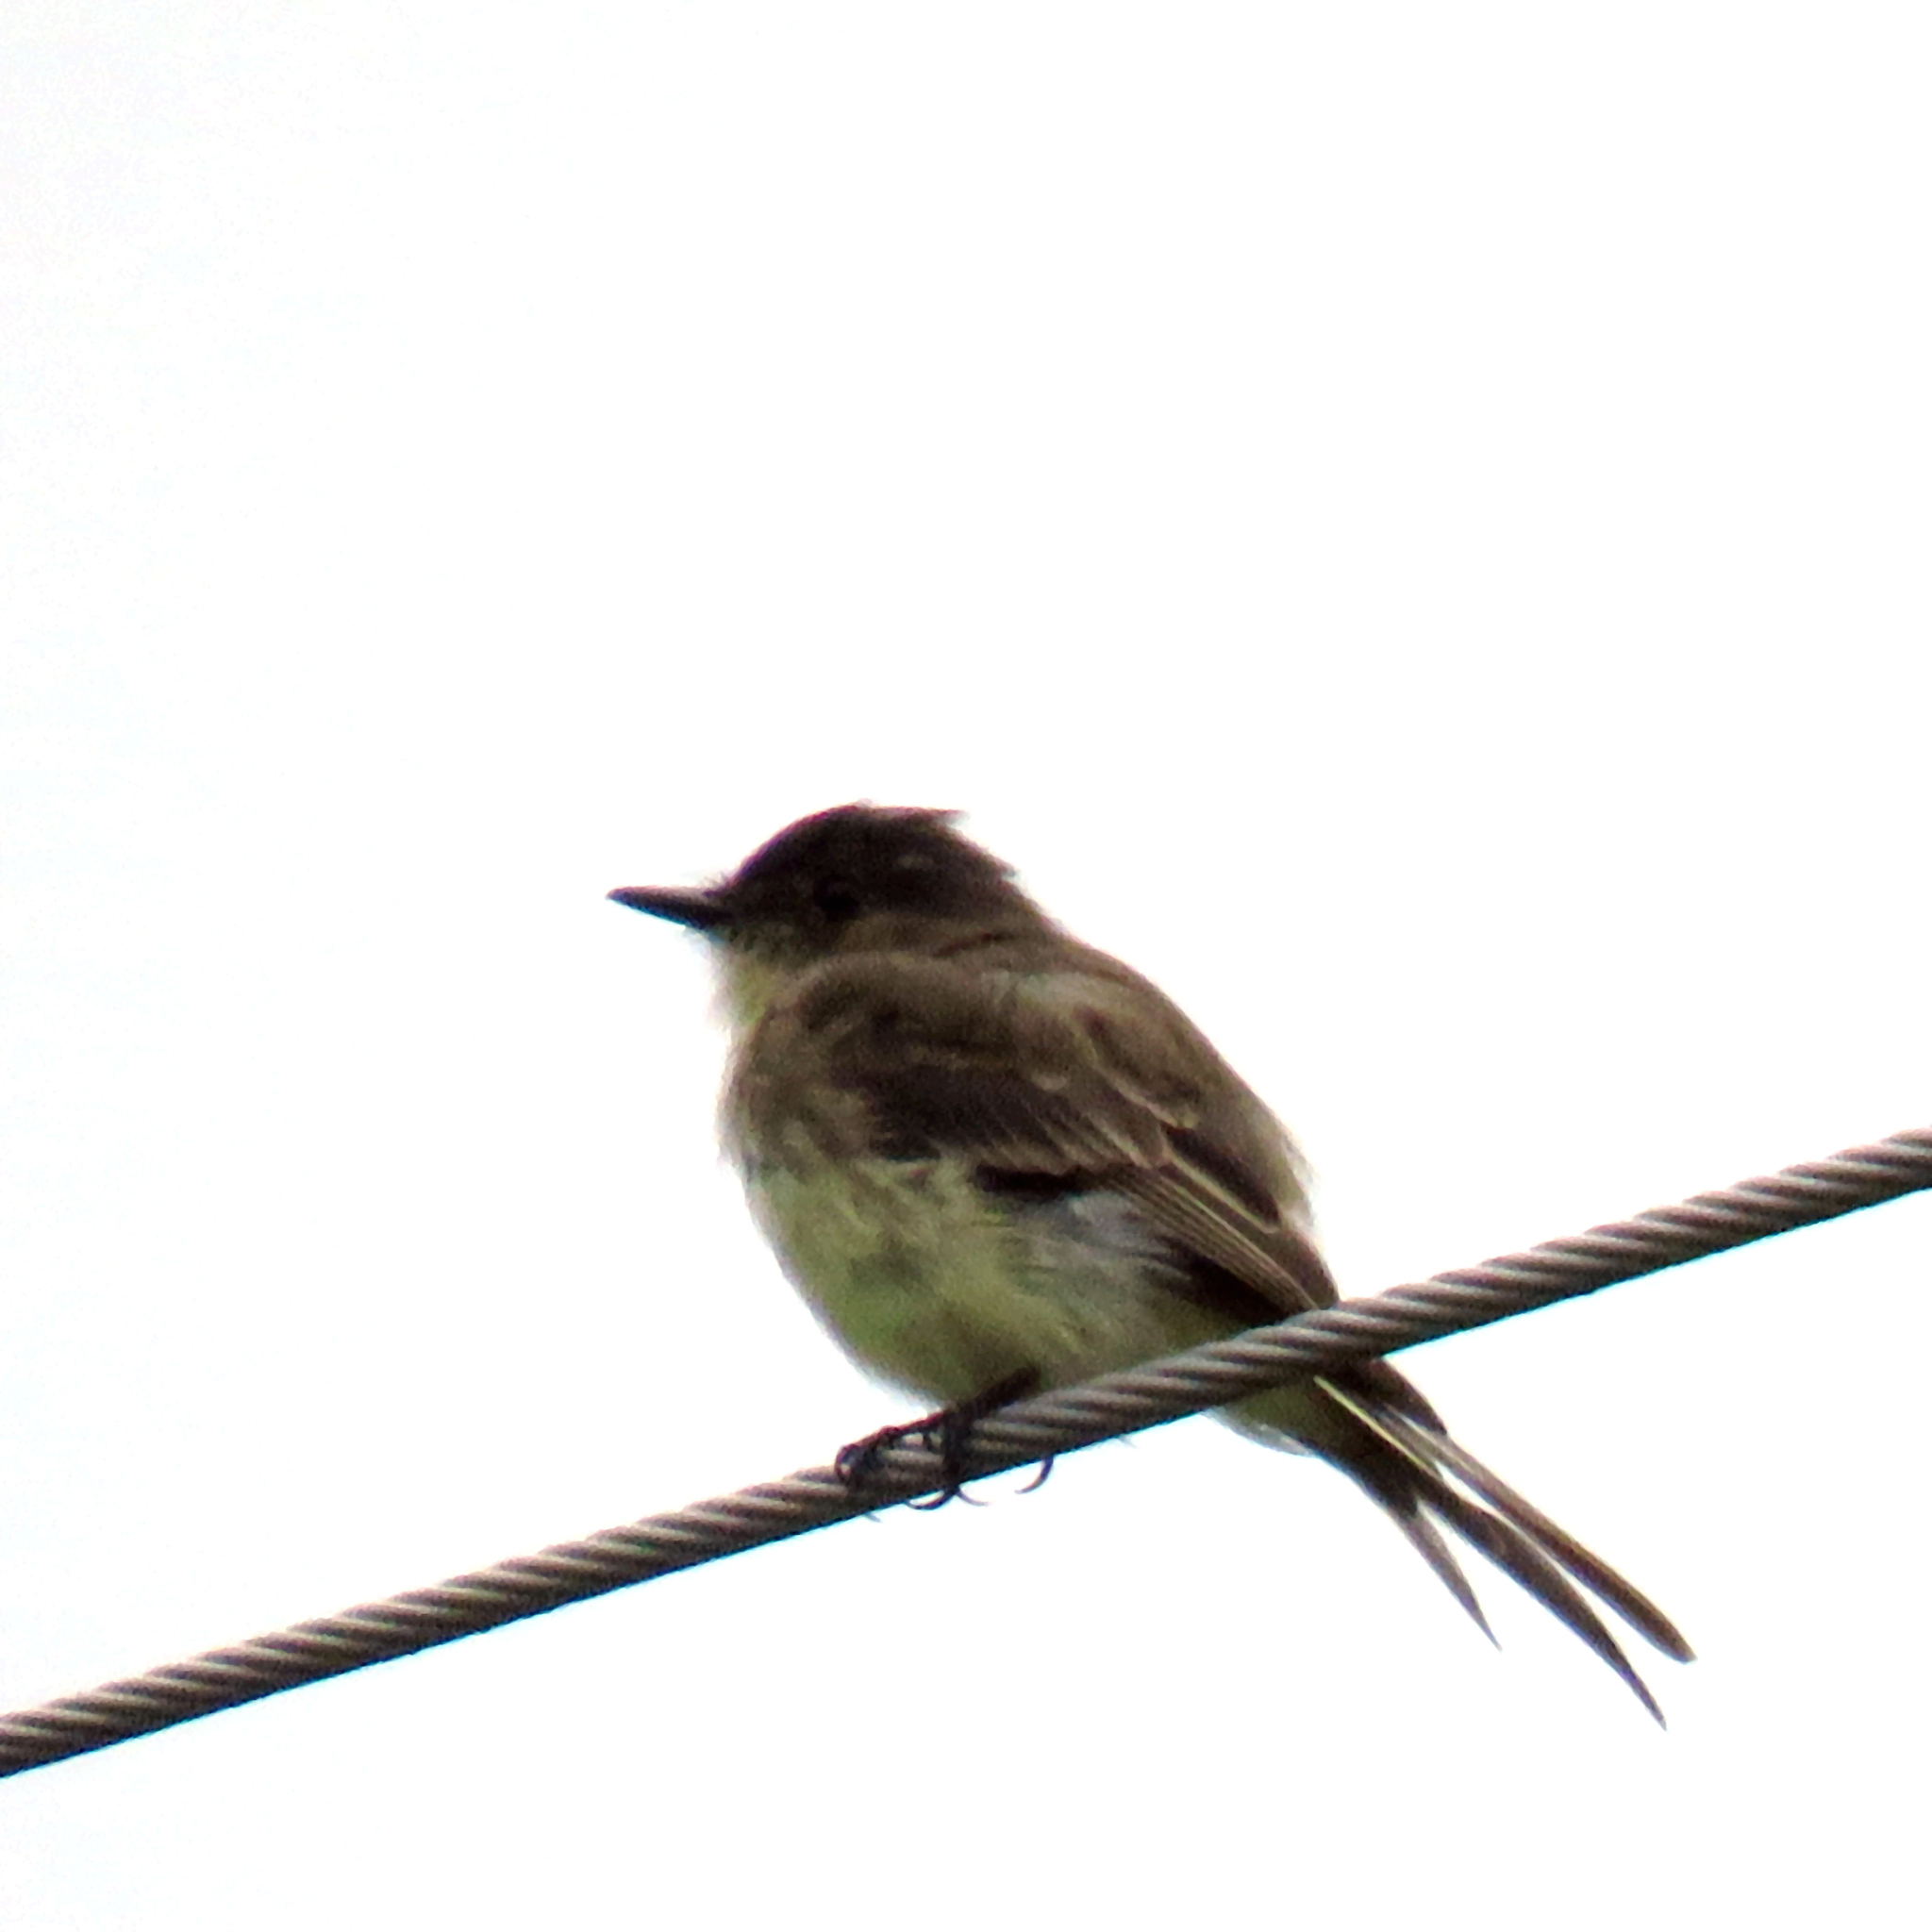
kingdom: Animalia
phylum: Chordata
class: Aves
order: Passeriformes
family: Tyrannidae
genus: Sayornis
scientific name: Sayornis phoebe
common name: Eastern phoebe
